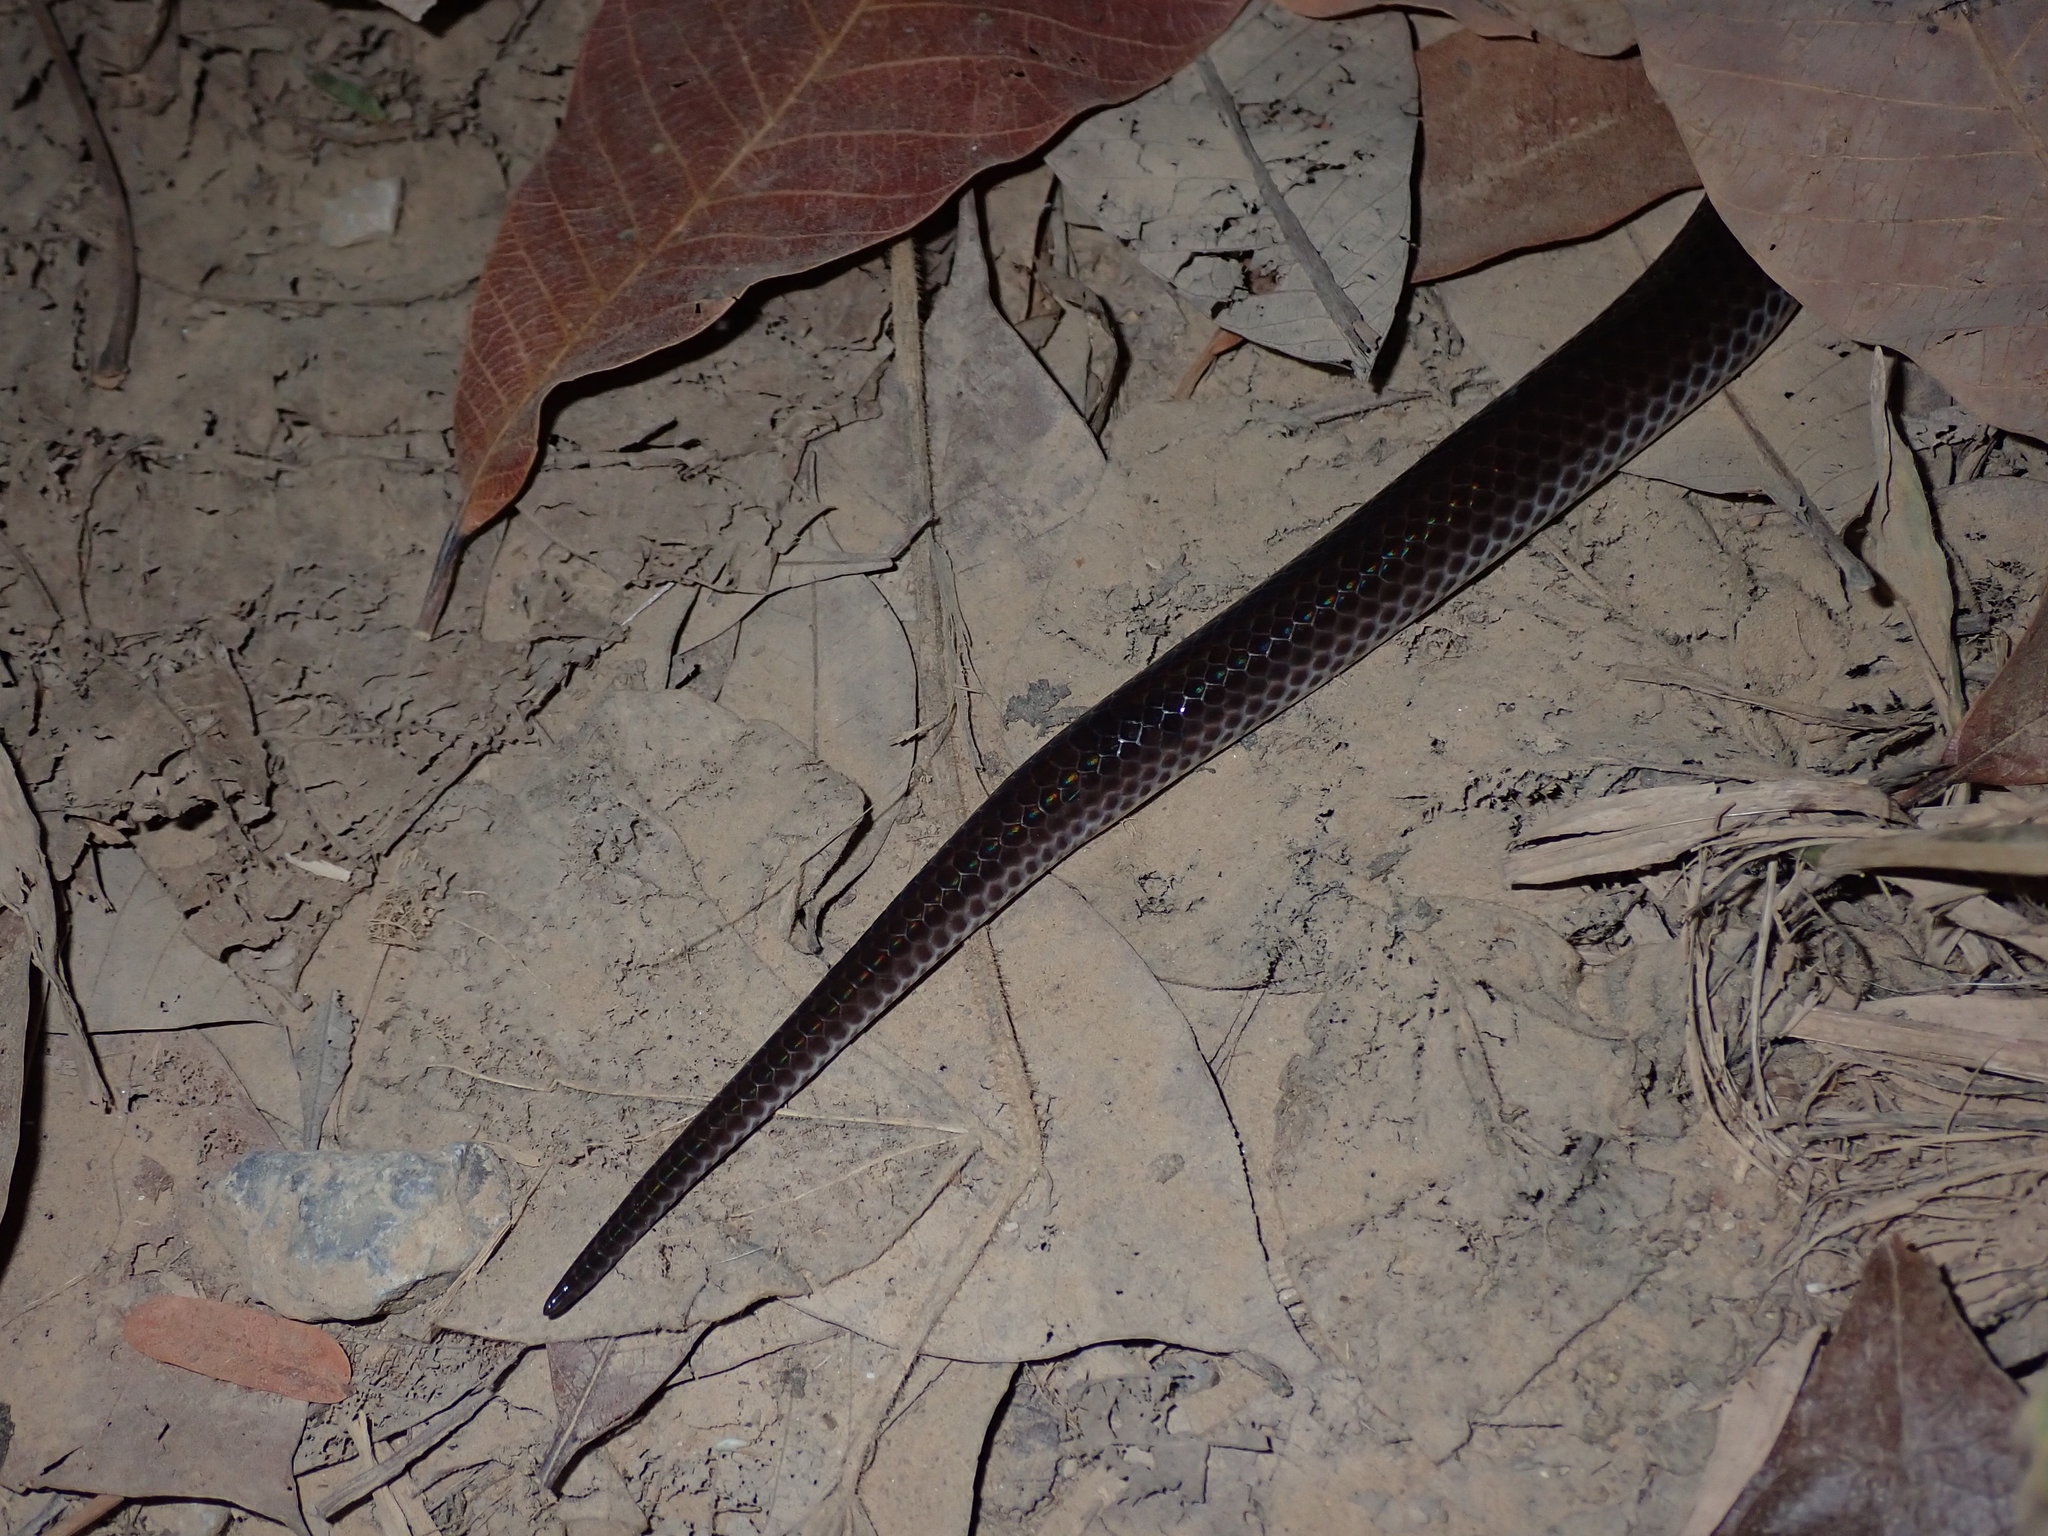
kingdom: Animalia
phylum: Chordata
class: Squamata
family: Xenopeltidae
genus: Xenopeltis
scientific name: Xenopeltis unicolor
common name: Sunbeam snake
